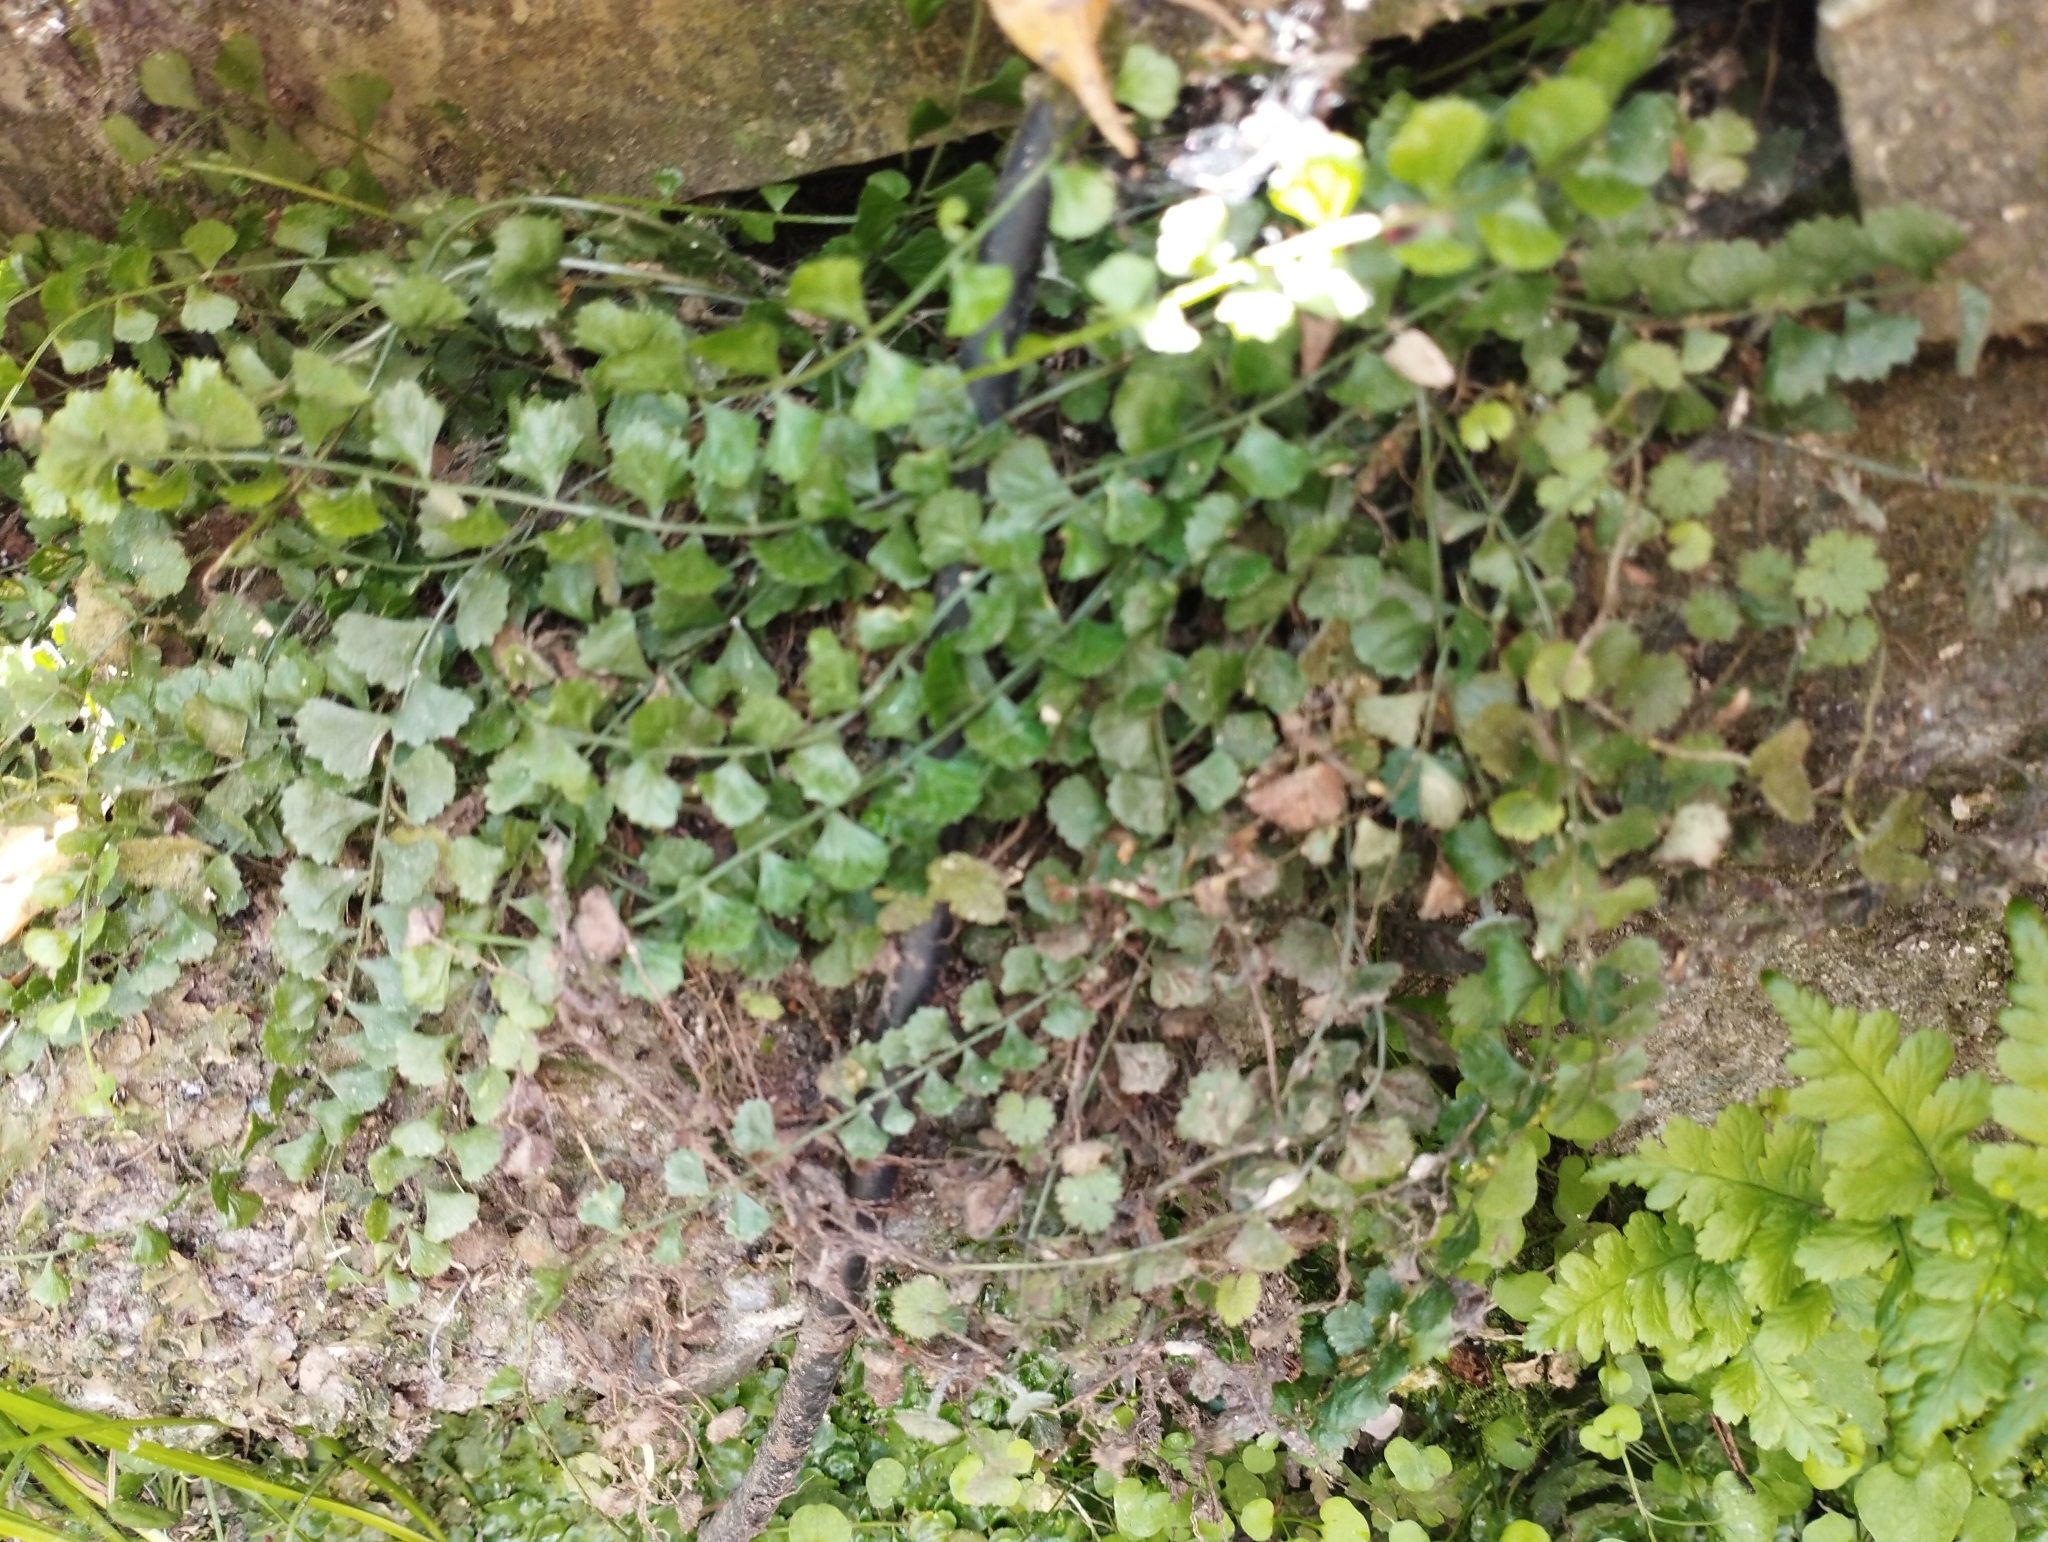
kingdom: Plantae
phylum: Tracheophyta
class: Polypodiopsida
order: Polypodiales
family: Aspleniaceae
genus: Asplenium
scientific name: Asplenium flabellifolium
